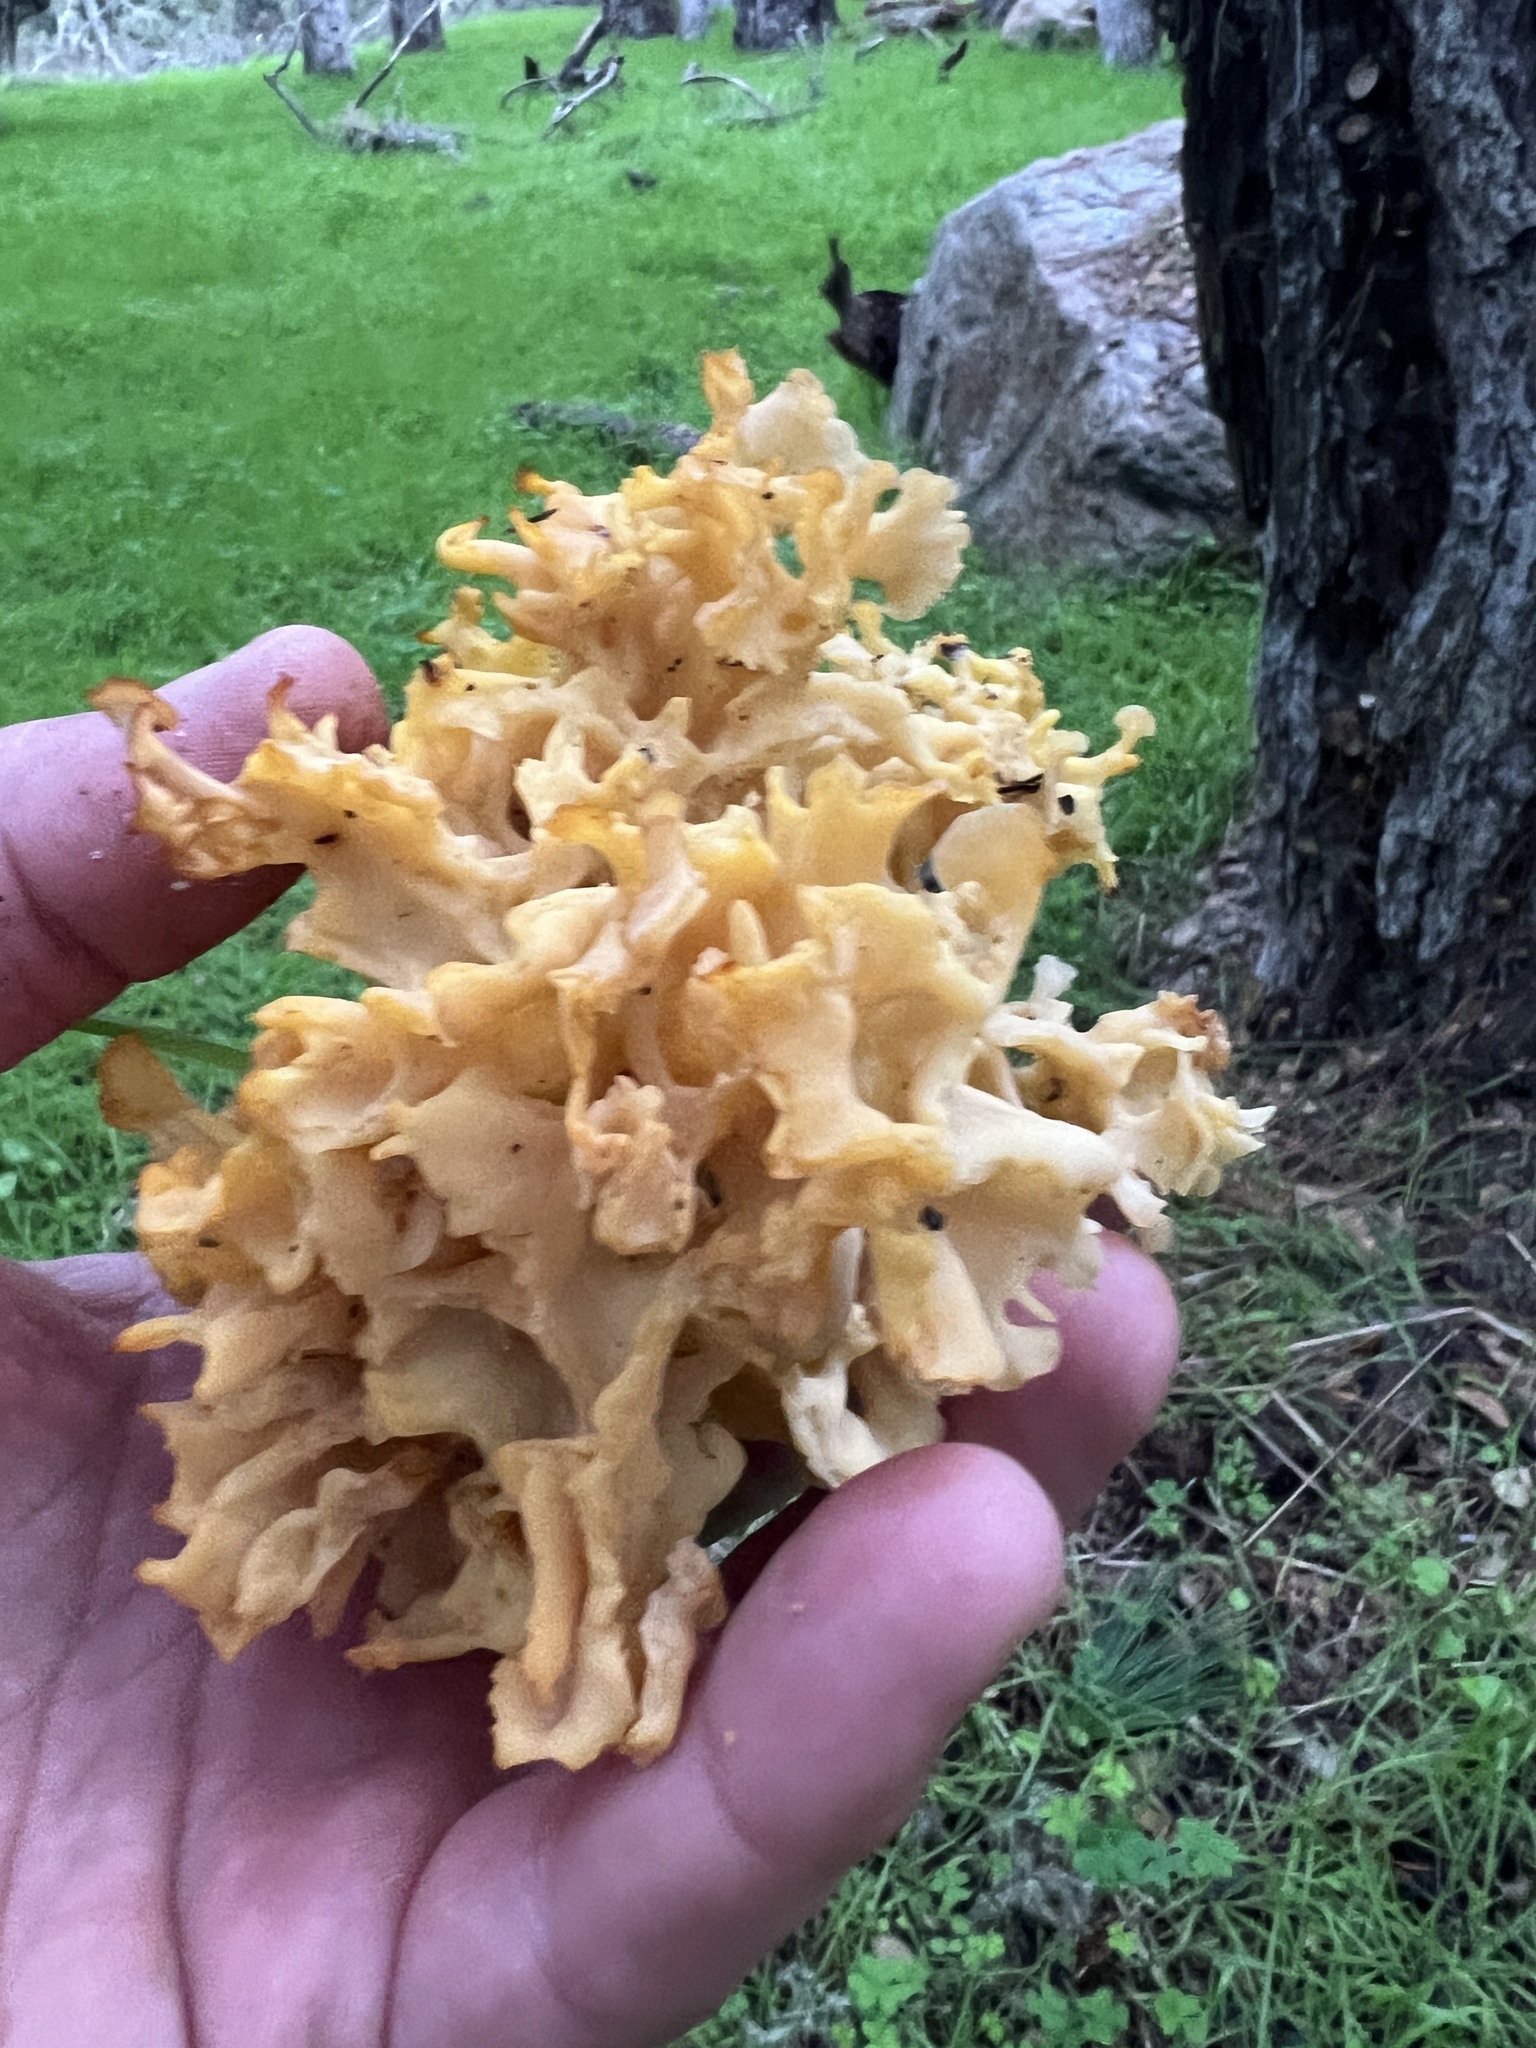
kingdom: Fungi
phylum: Basidiomycota
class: Agaricomycetes
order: Polyporales
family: Sparassidaceae
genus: Sparassis
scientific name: Sparassis radicata
